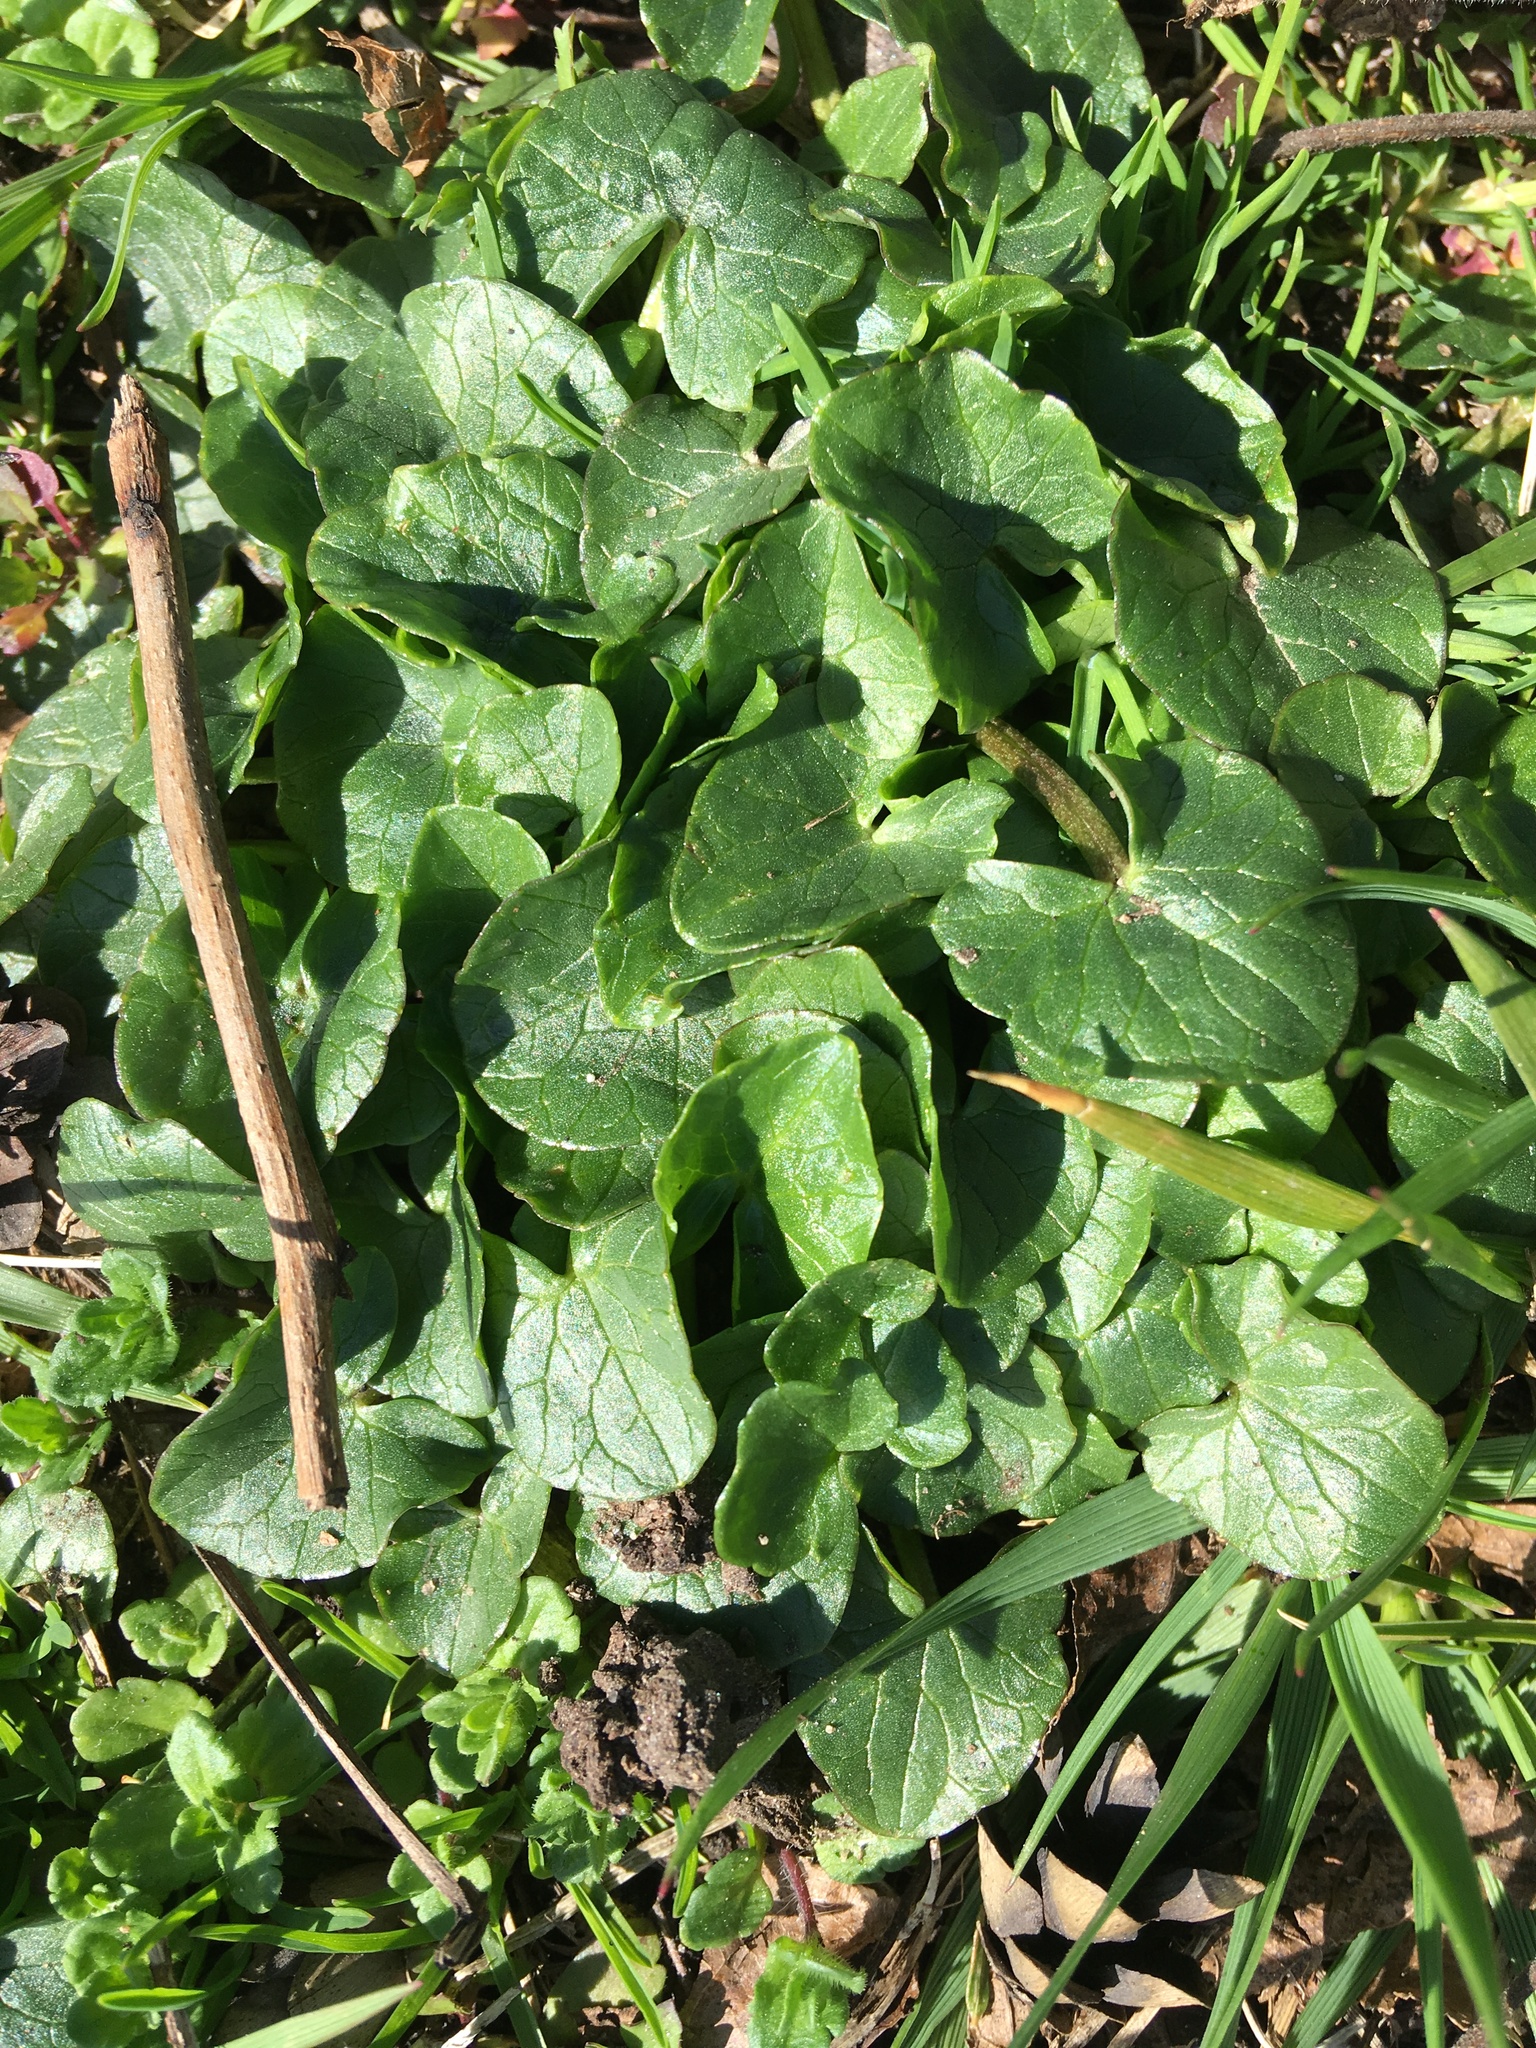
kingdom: Plantae
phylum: Tracheophyta
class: Magnoliopsida
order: Ranunculales
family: Ranunculaceae
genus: Ficaria
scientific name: Ficaria verna
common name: Lesser celandine
